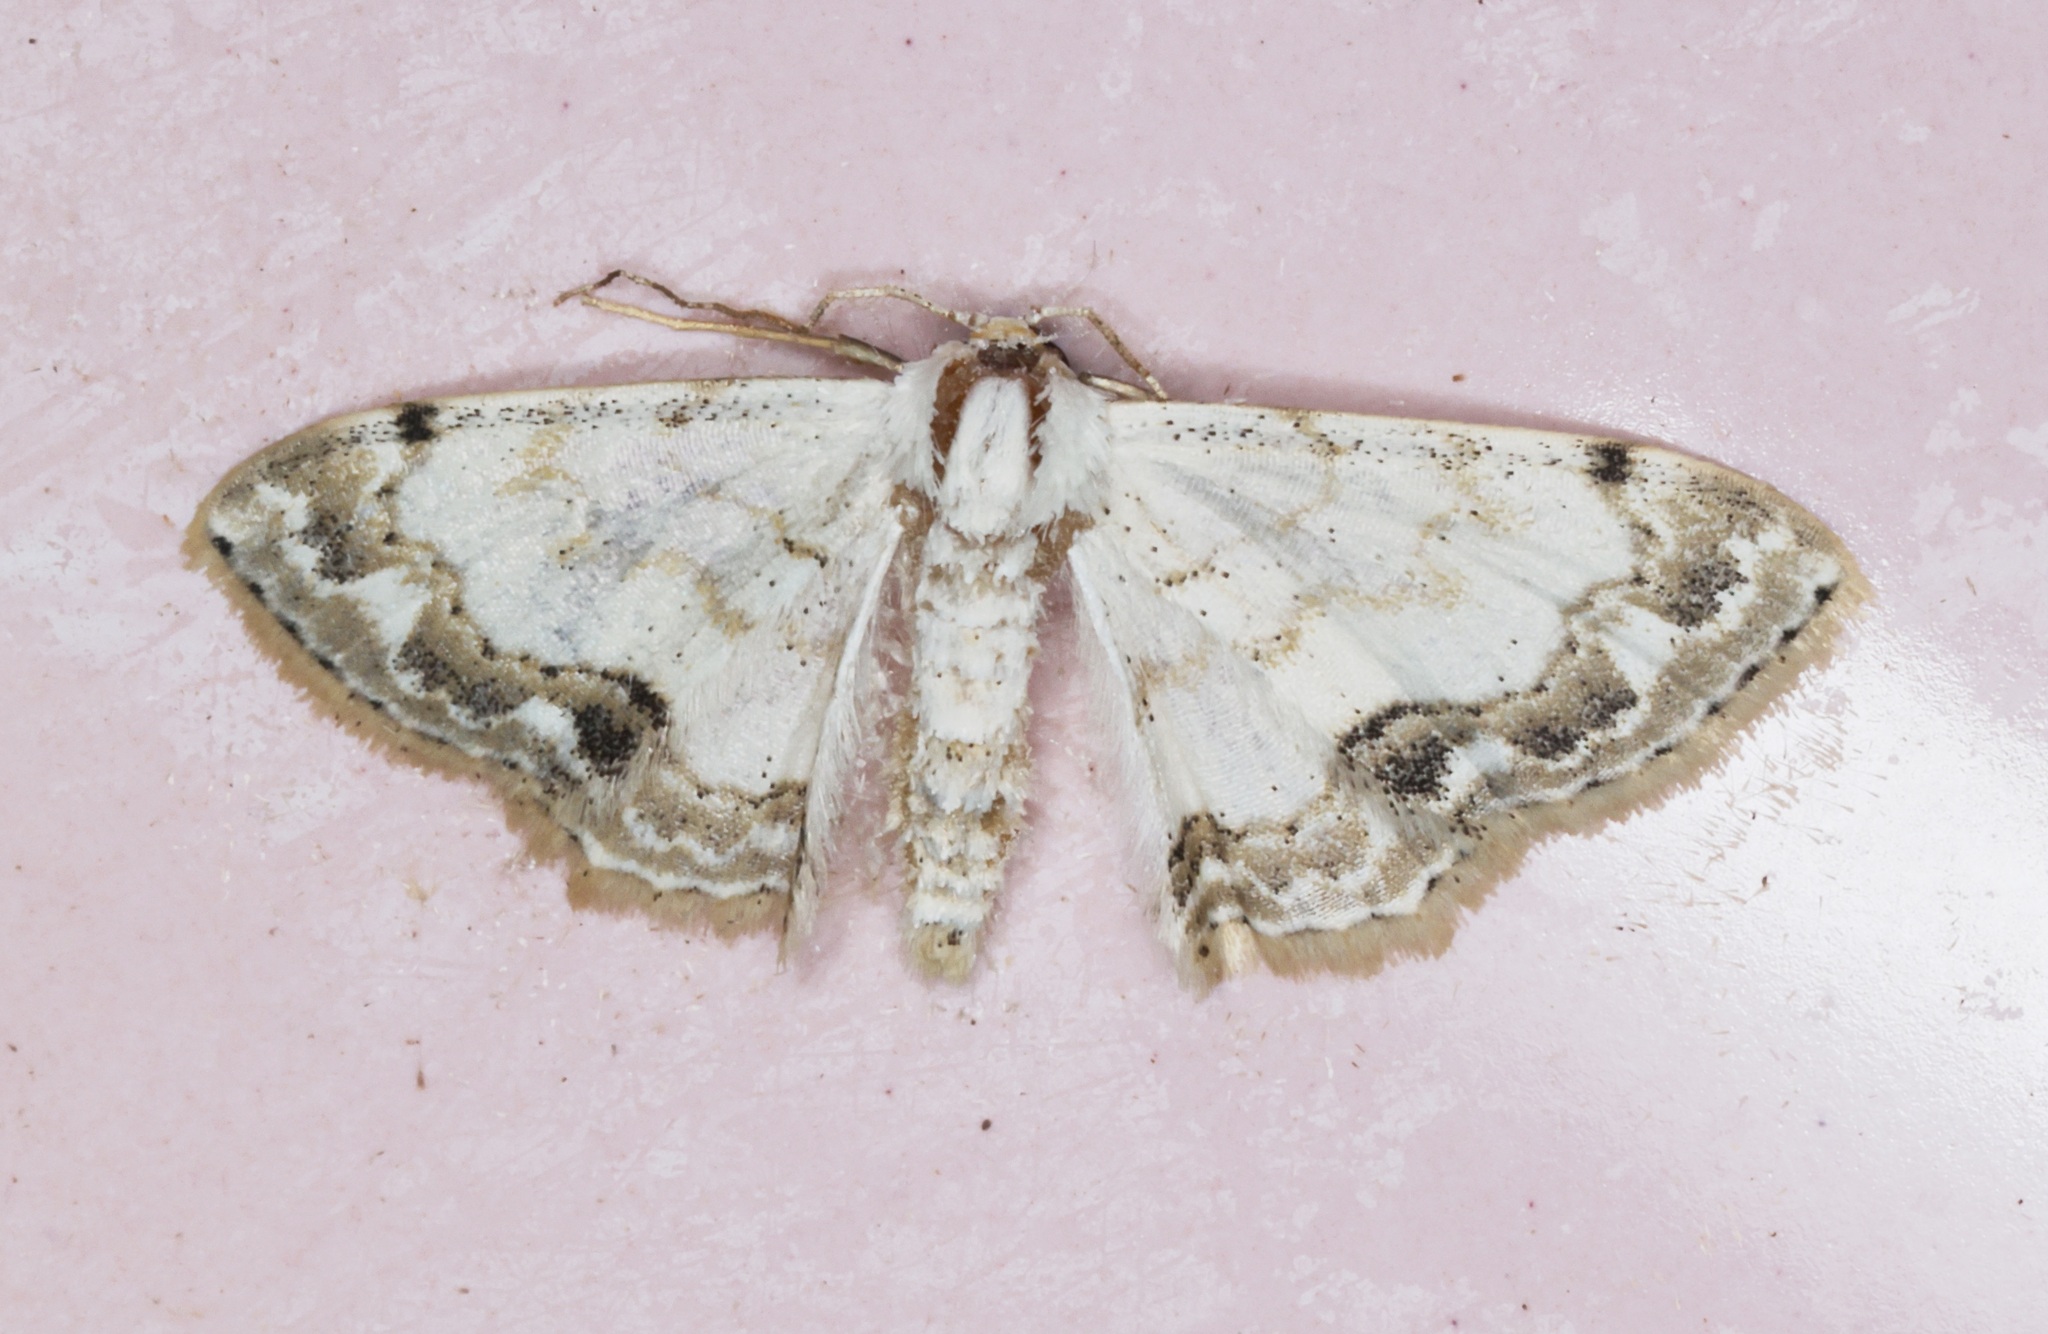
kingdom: Animalia
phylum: Arthropoda
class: Insecta
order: Lepidoptera
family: Geometridae
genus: Scopula
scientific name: Scopula propinquaria
